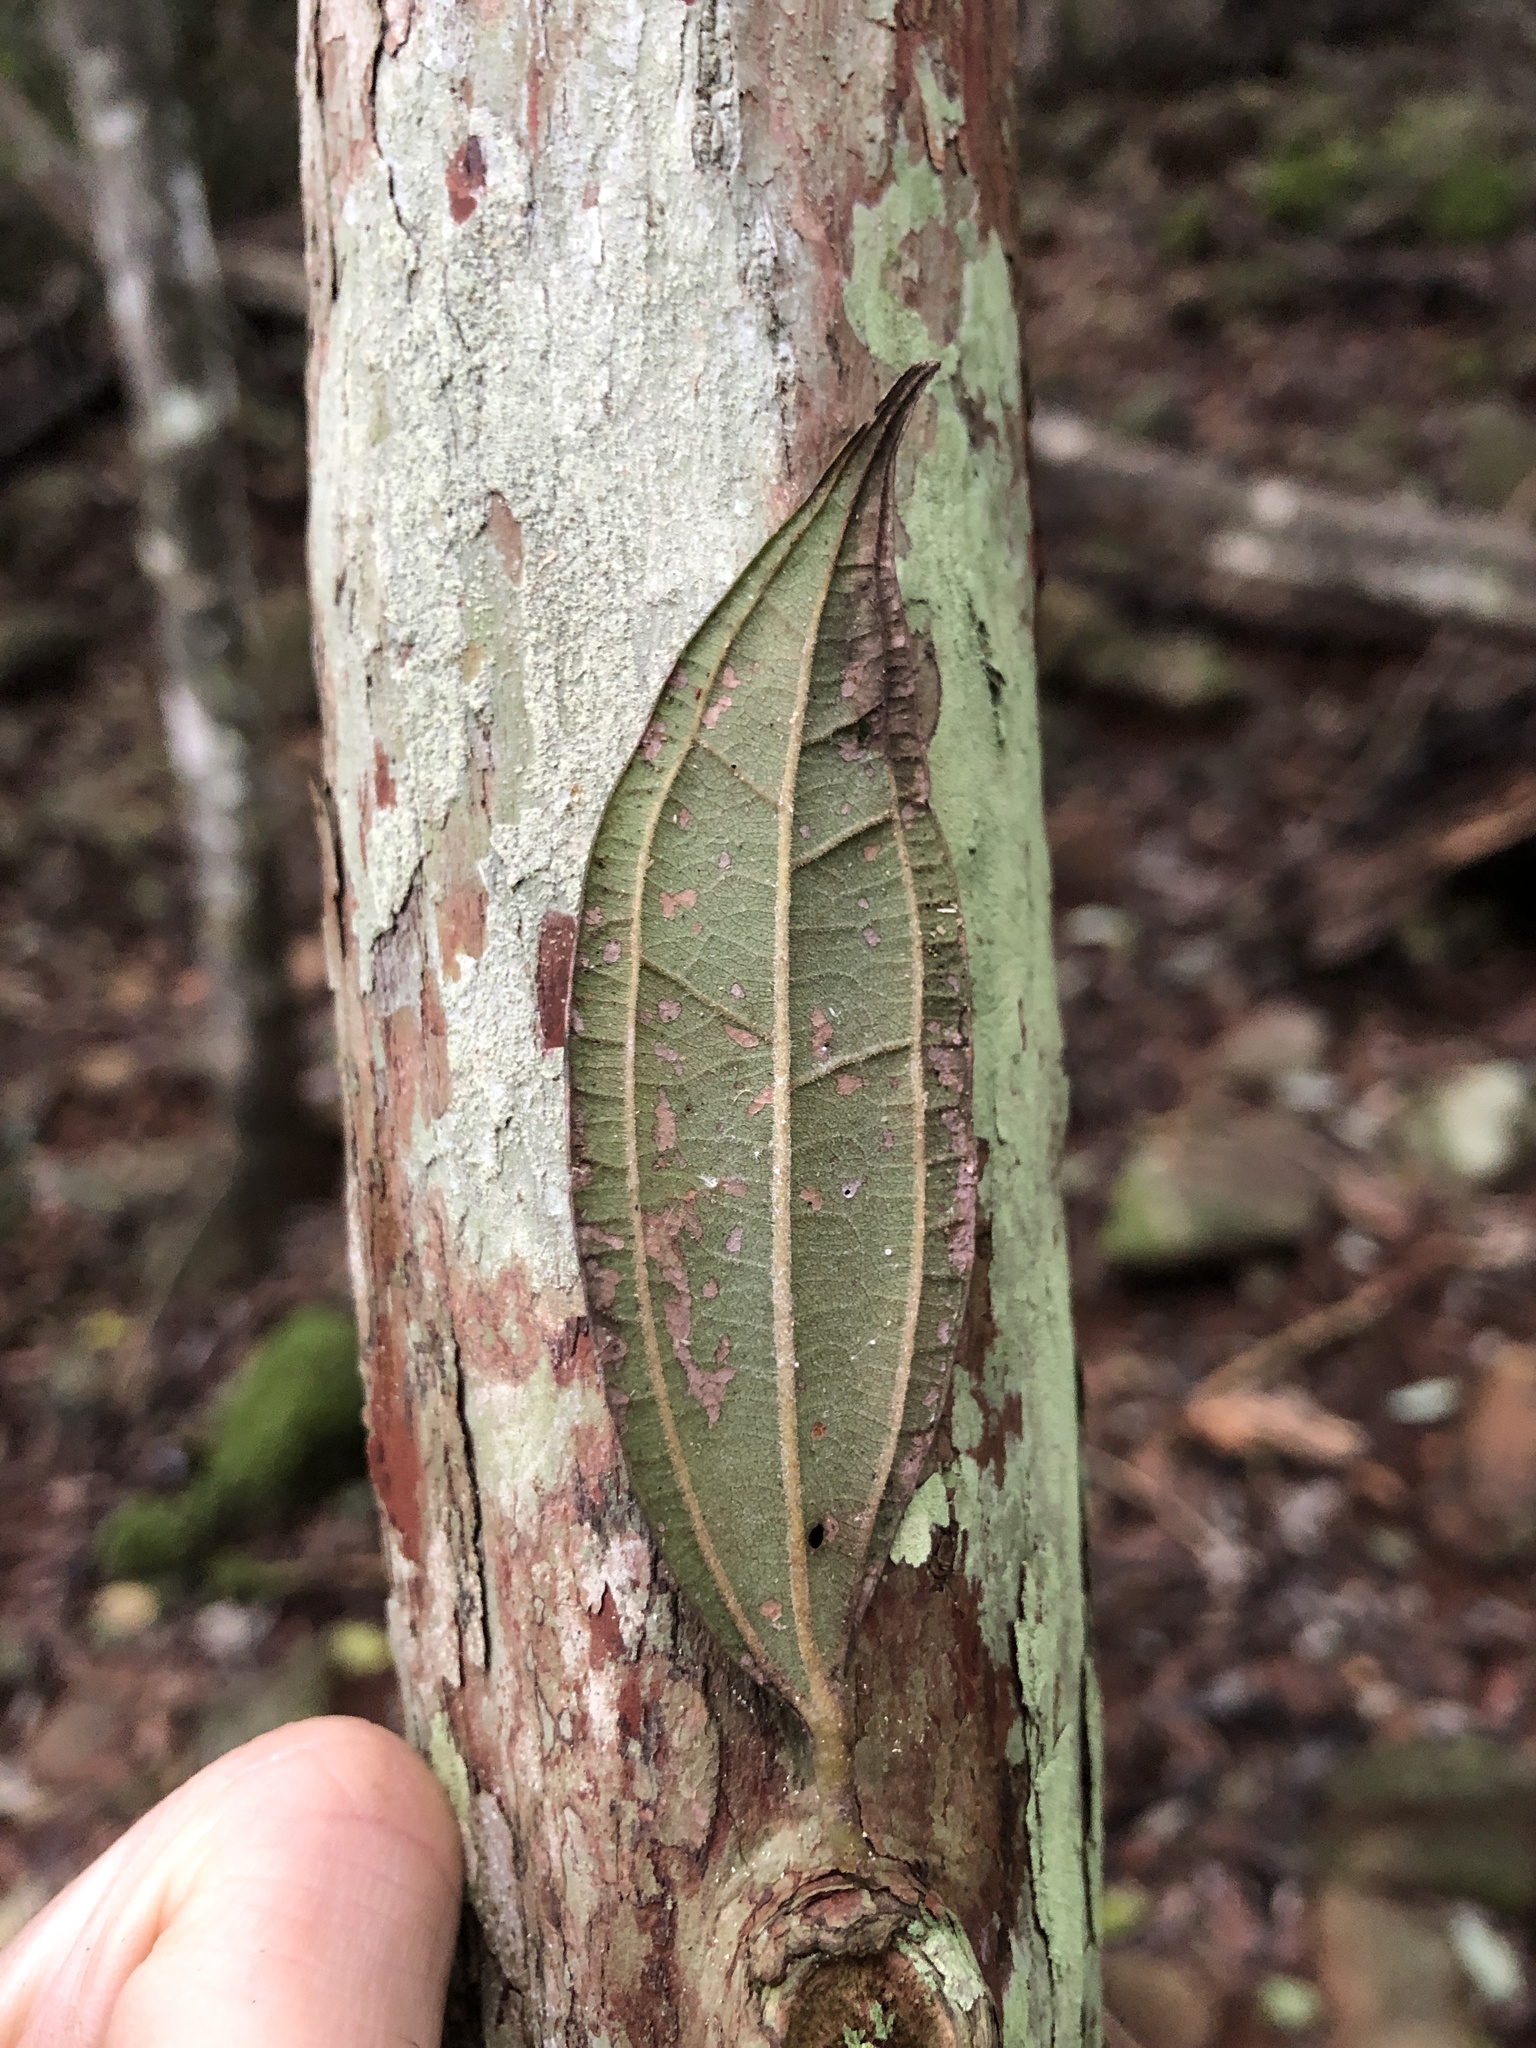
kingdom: Plantae
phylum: Tracheophyta
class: Magnoliopsida
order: Myrtales
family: Myrtaceae
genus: Rhodamnia
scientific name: Rhodamnia rubescens
